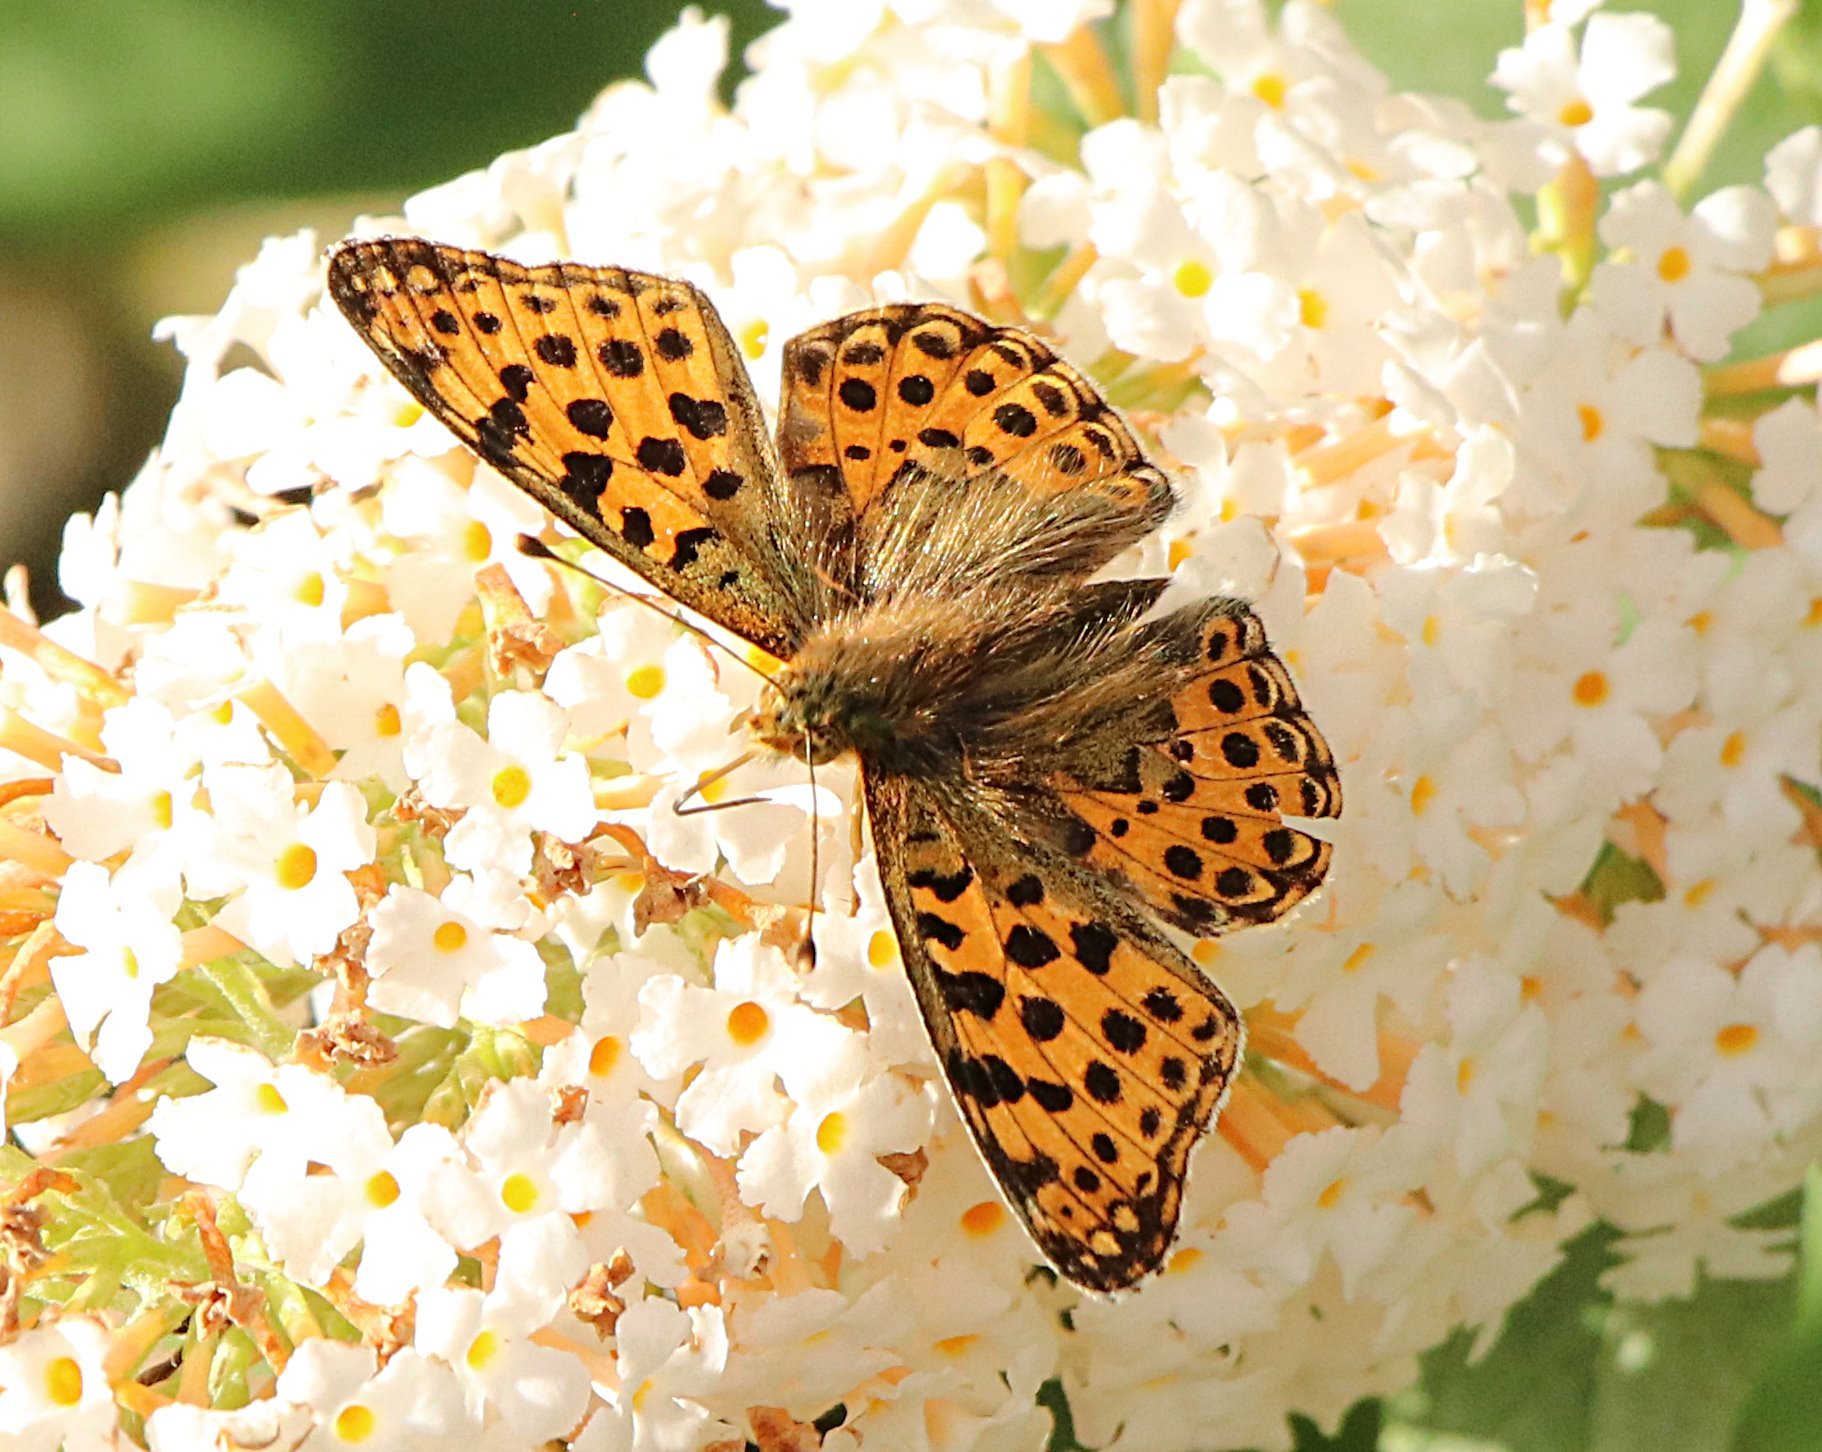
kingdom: Animalia
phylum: Arthropoda
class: Insecta
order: Lepidoptera
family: Nymphalidae
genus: Issoria
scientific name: Issoria lathonia
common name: Queen of spain fritillary
